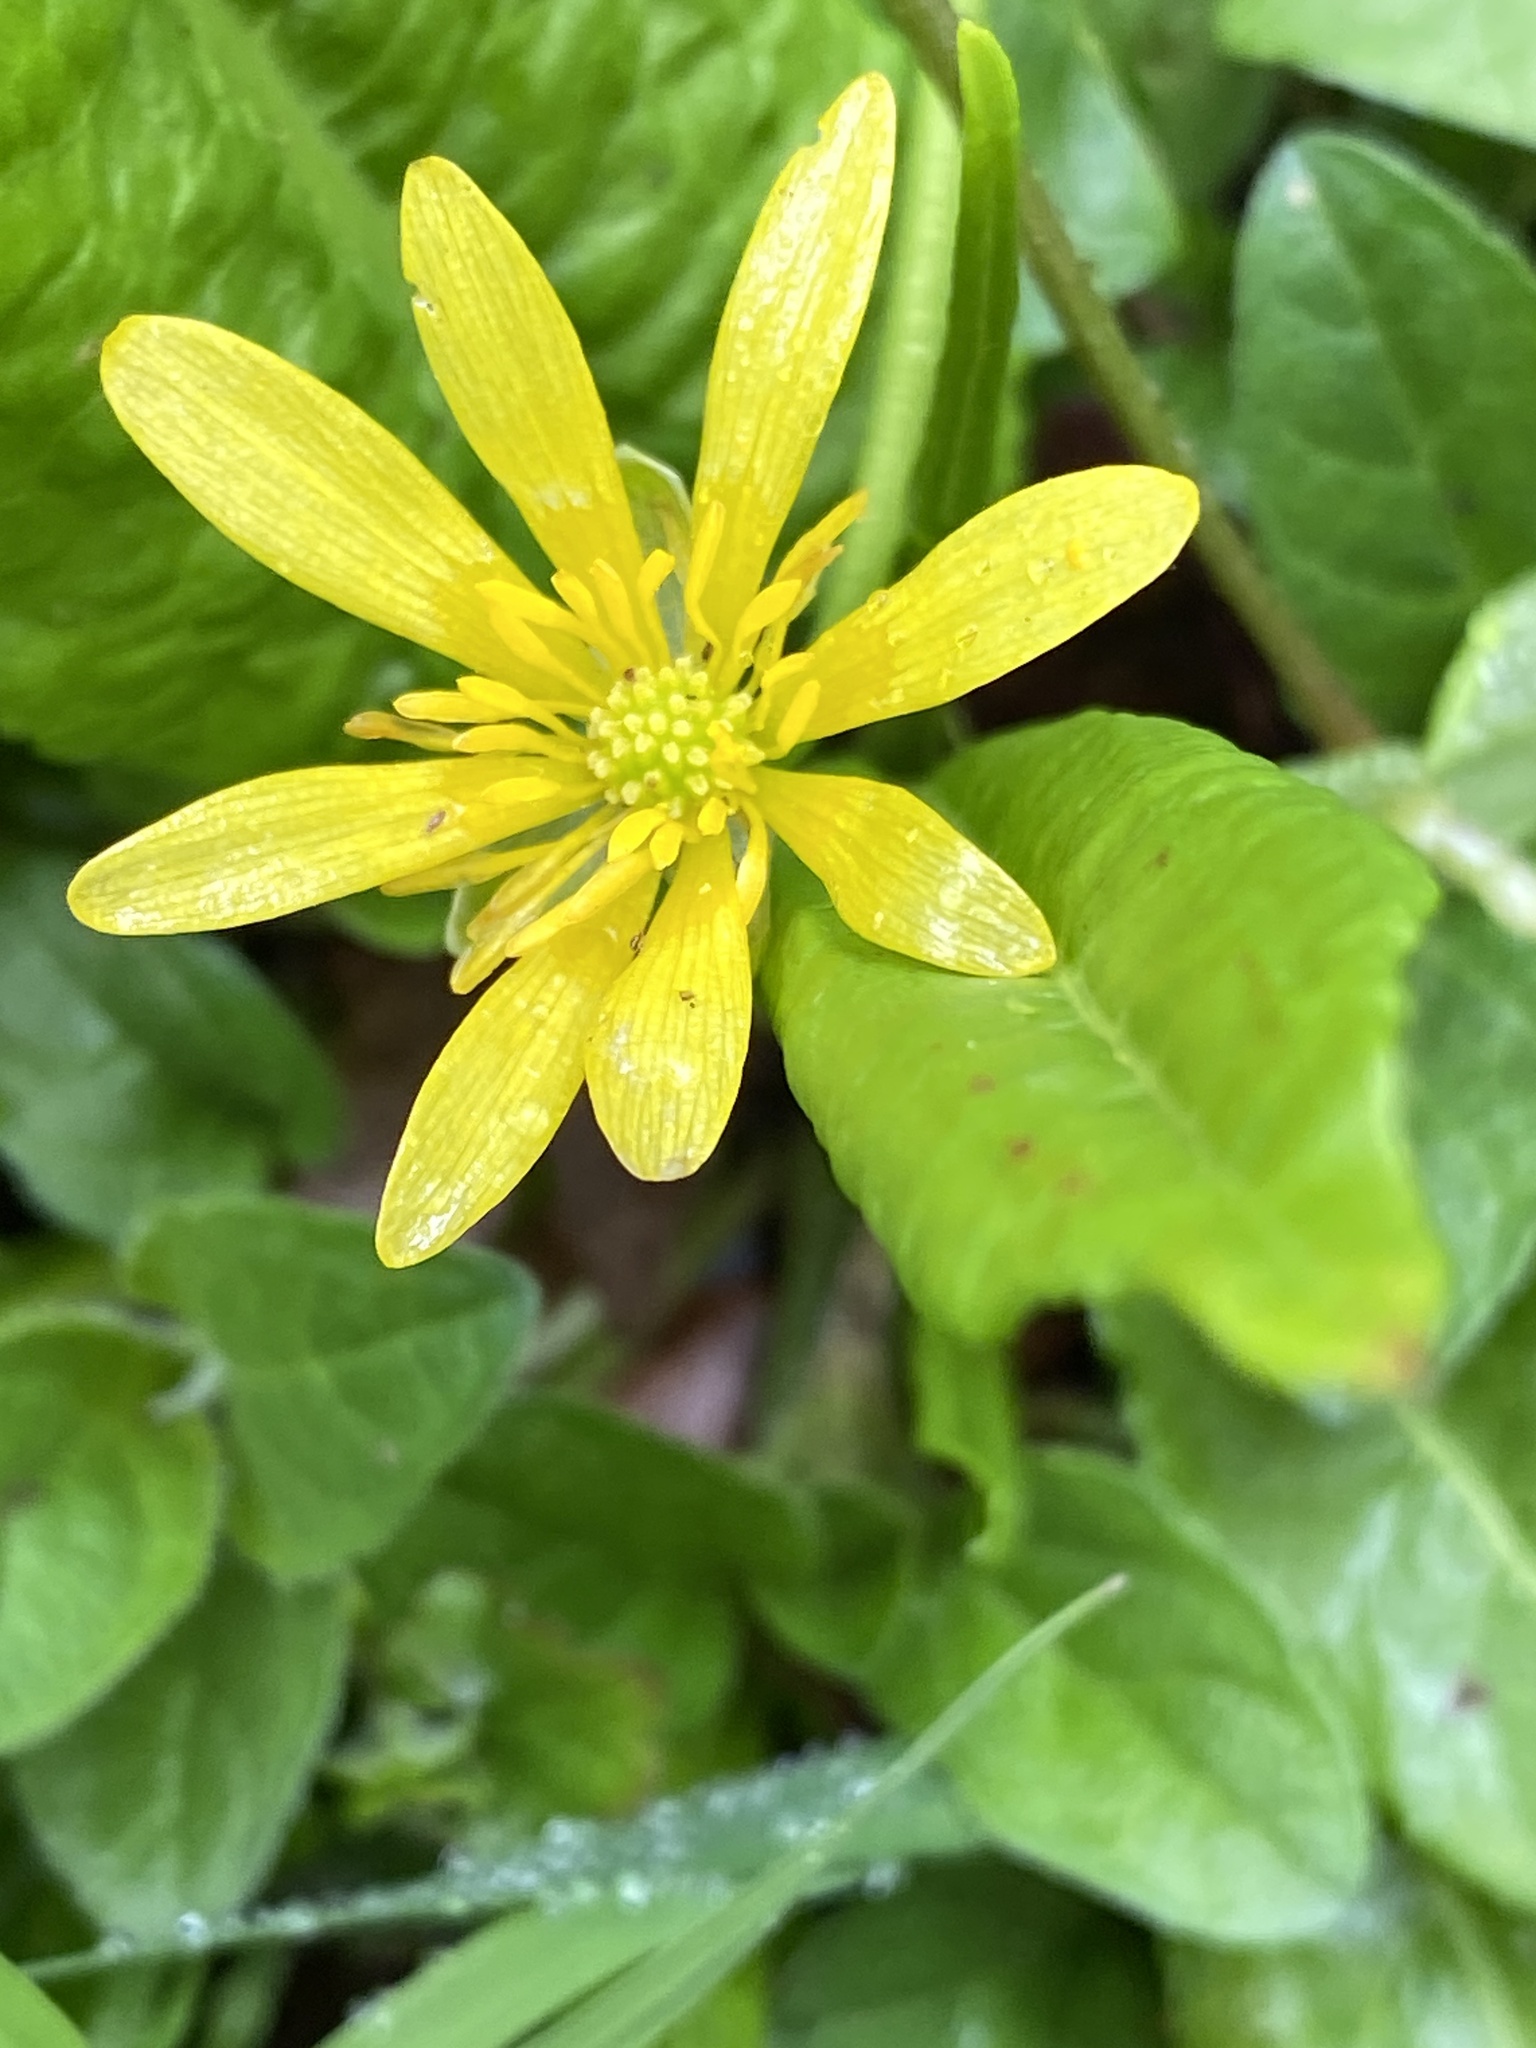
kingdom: Plantae
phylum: Tracheophyta
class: Magnoliopsida
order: Ranunculales
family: Ranunculaceae
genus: Ficaria
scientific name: Ficaria verna
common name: Lesser celandine
